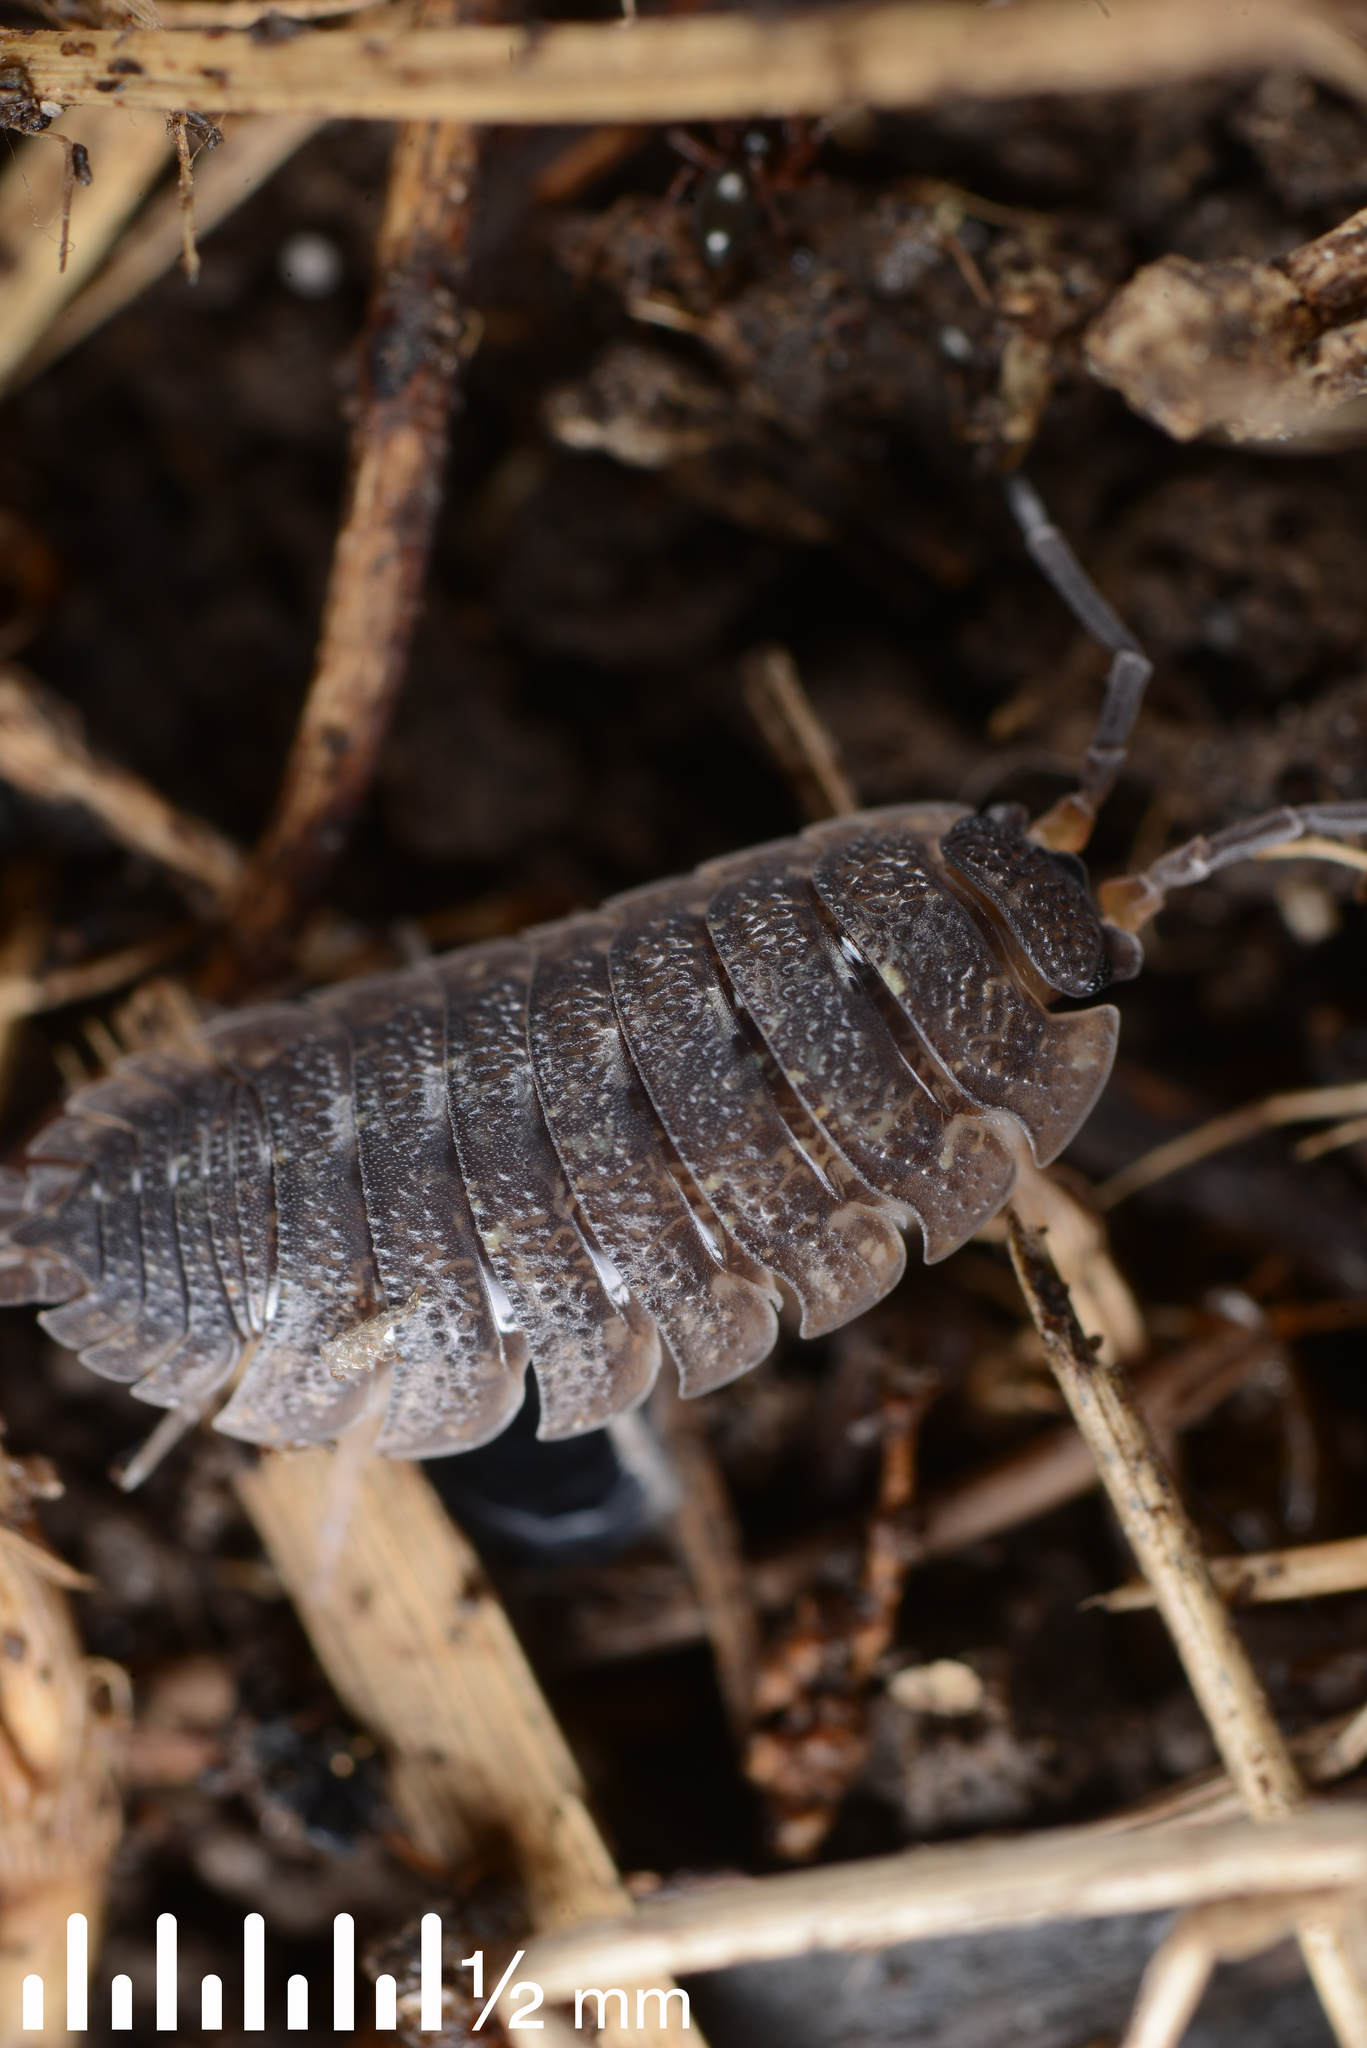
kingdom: Animalia
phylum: Arthropoda
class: Malacostraca
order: Isopoda
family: Porcellionidae
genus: Porcellio
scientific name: Porcellio scaber
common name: Common rough woodlouse
